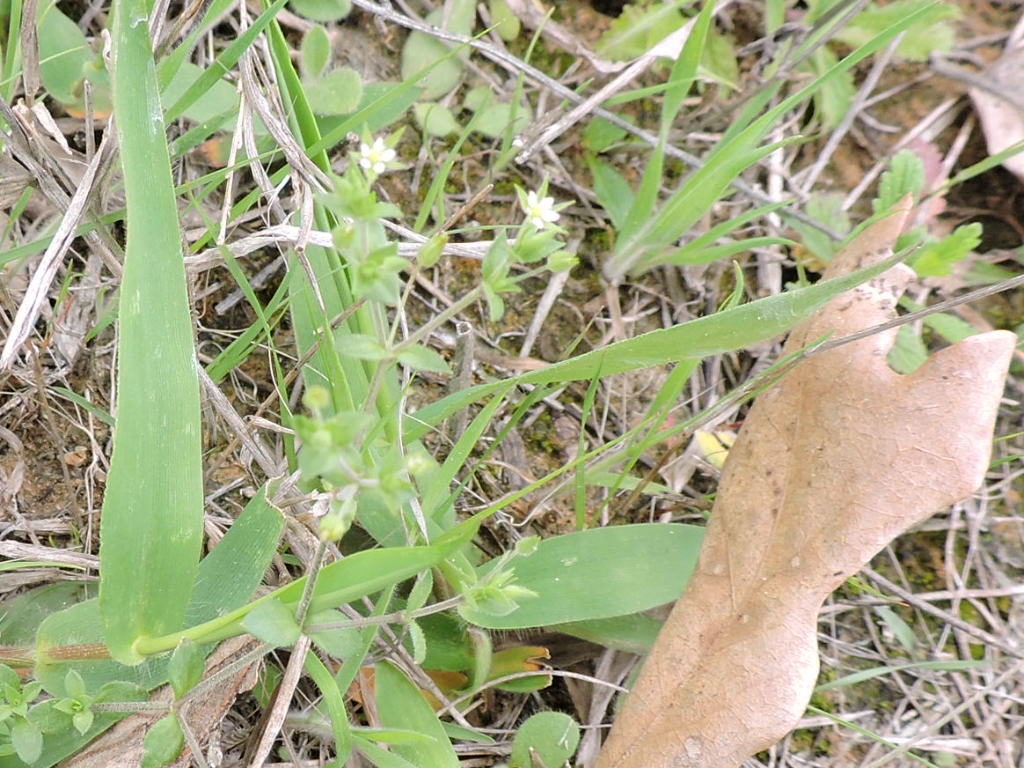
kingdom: Plantae
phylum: Tracheophyta
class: Magnoliopsida
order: Caryophyllales
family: Caryophyllaceae
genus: Arenaria
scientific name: Arenaria serpyllifolia
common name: Thyme-leaved sandwort
